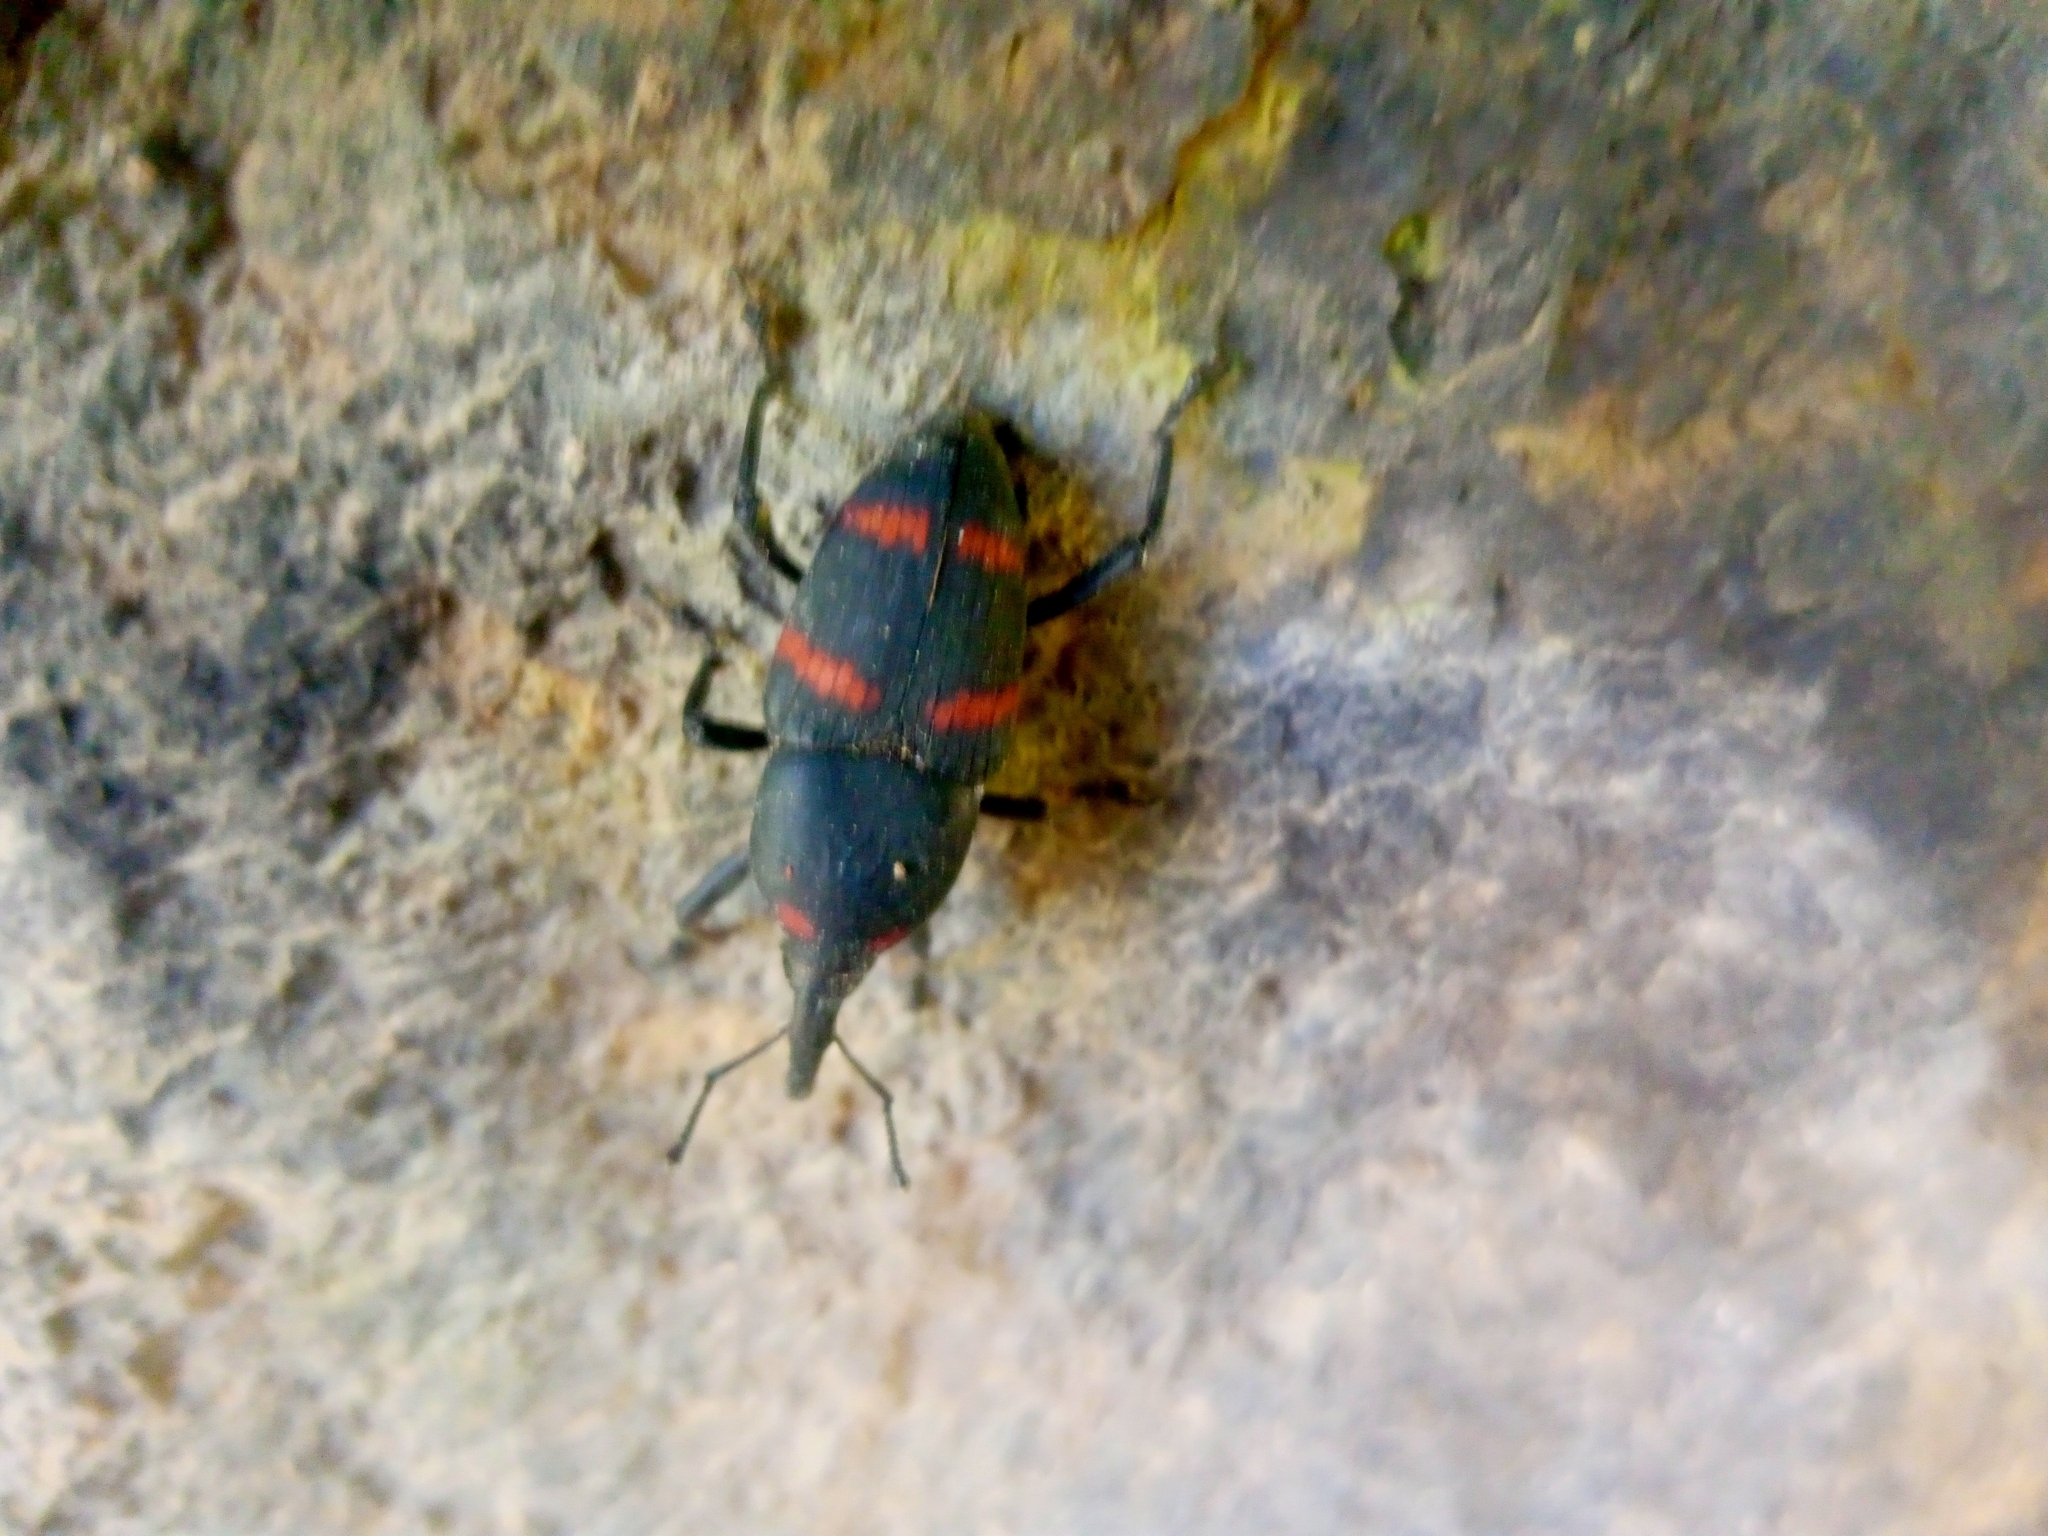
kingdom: Animalia
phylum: Arthropoda
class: Insecta
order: Coleoptera
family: Dryophthoridae
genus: Cactophagus
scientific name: Cactophagus spinolae
